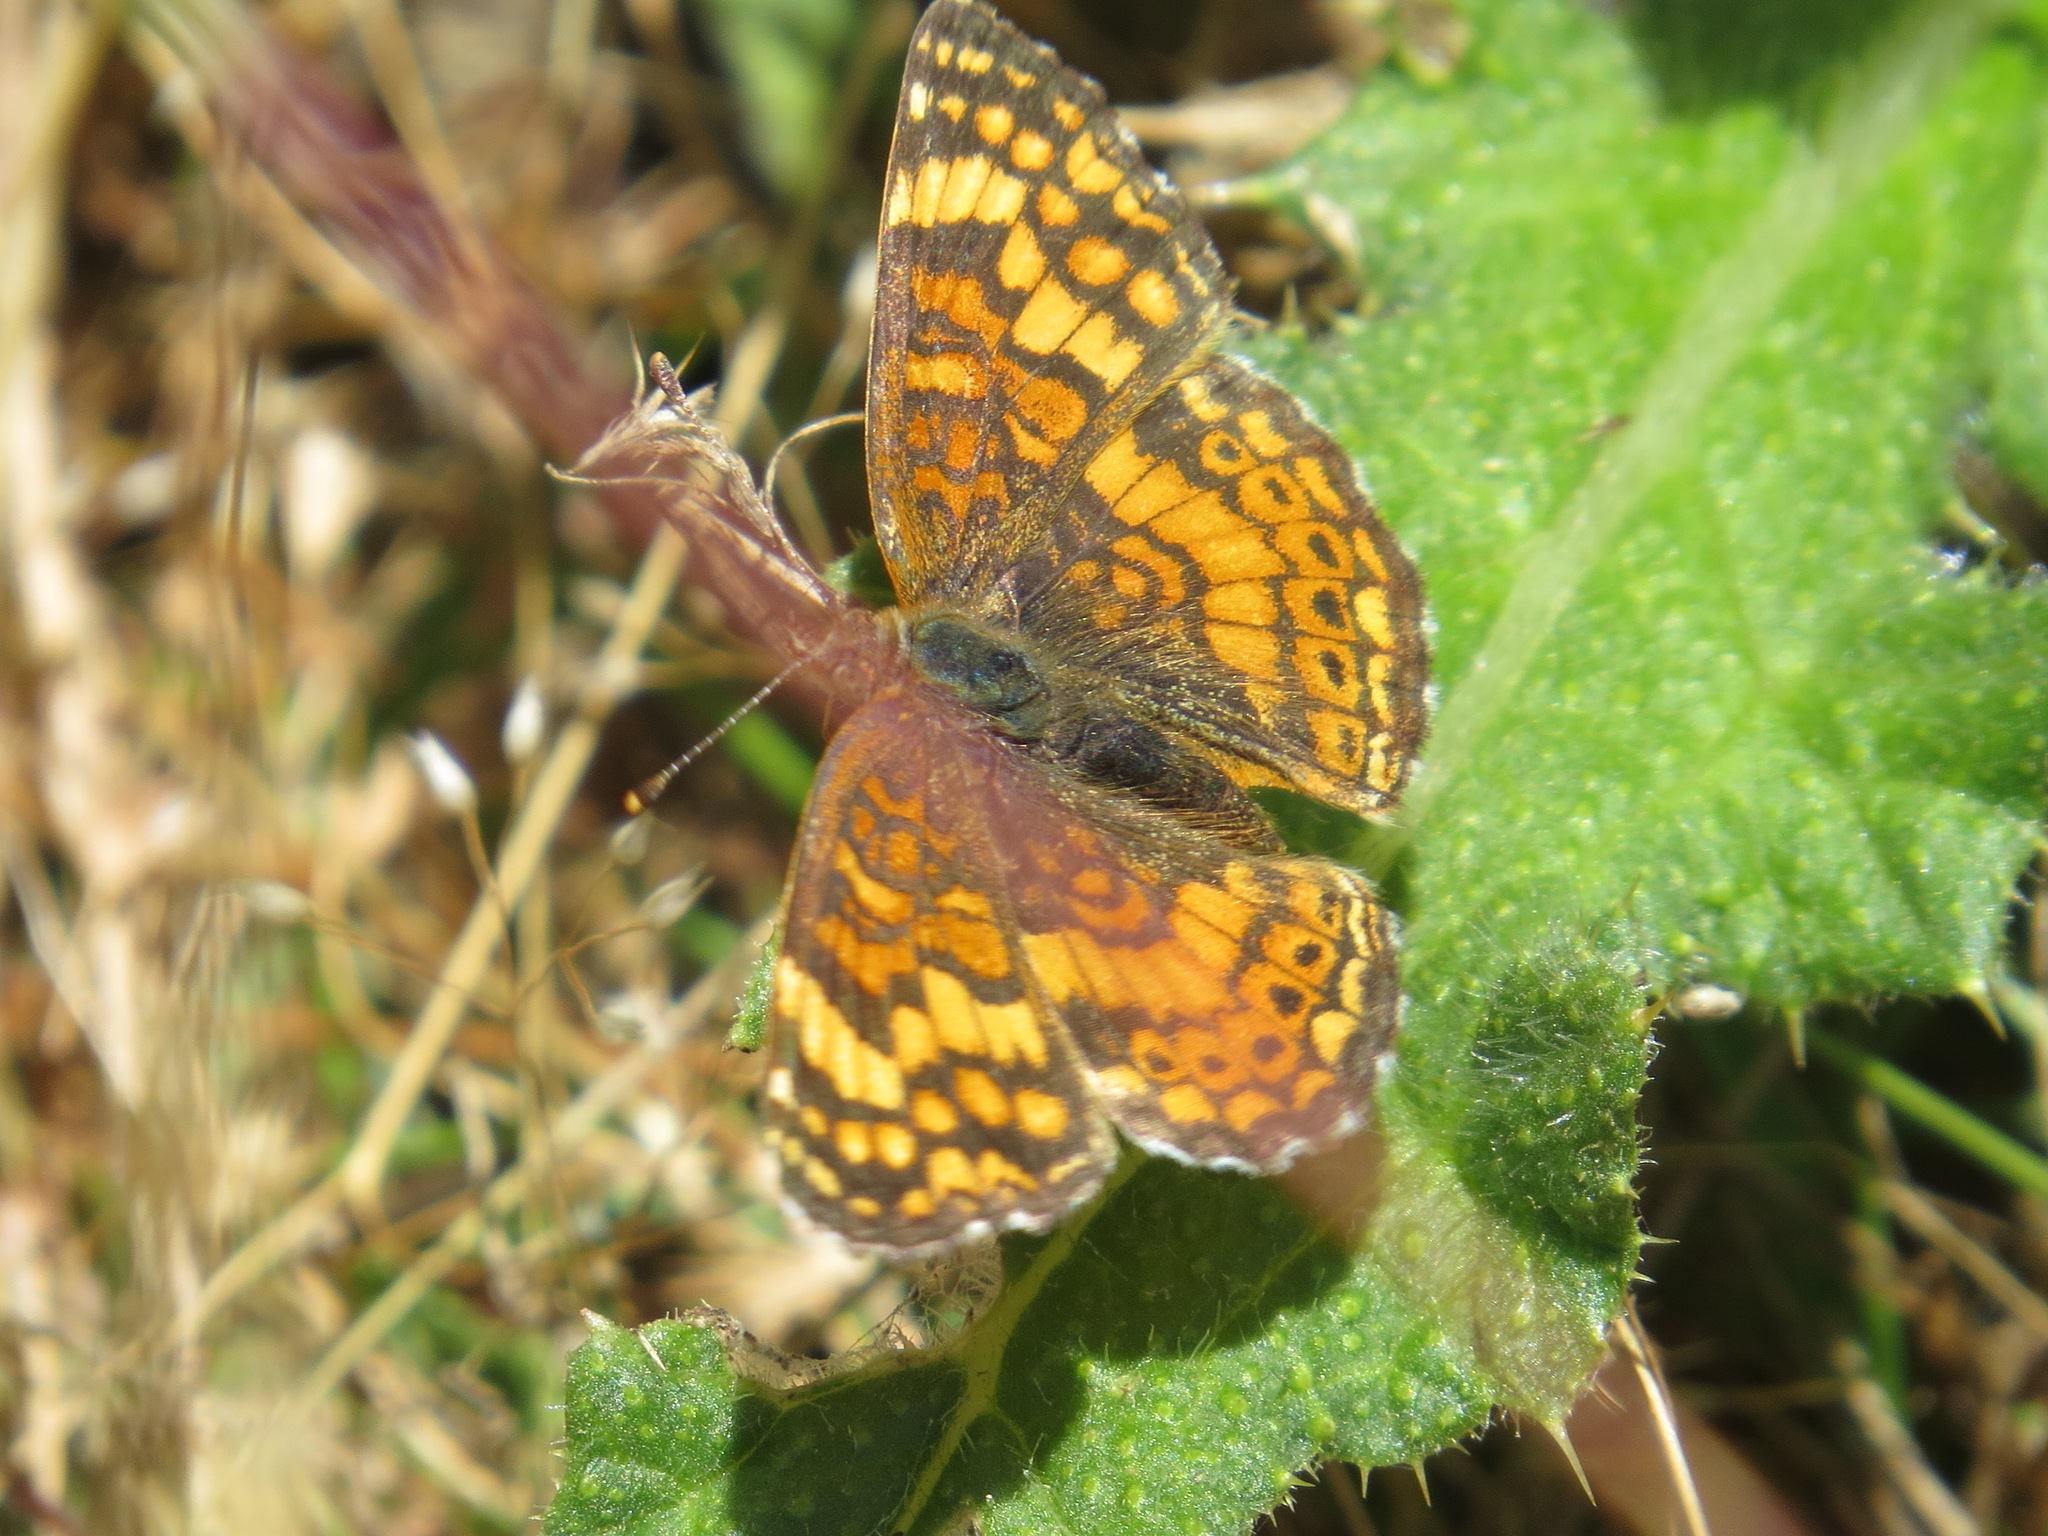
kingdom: Animalia
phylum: Arthropoda
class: Insecta
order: Lepidoptera
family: Nymphalidae
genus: Eresia
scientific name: Eresia aveyrona
